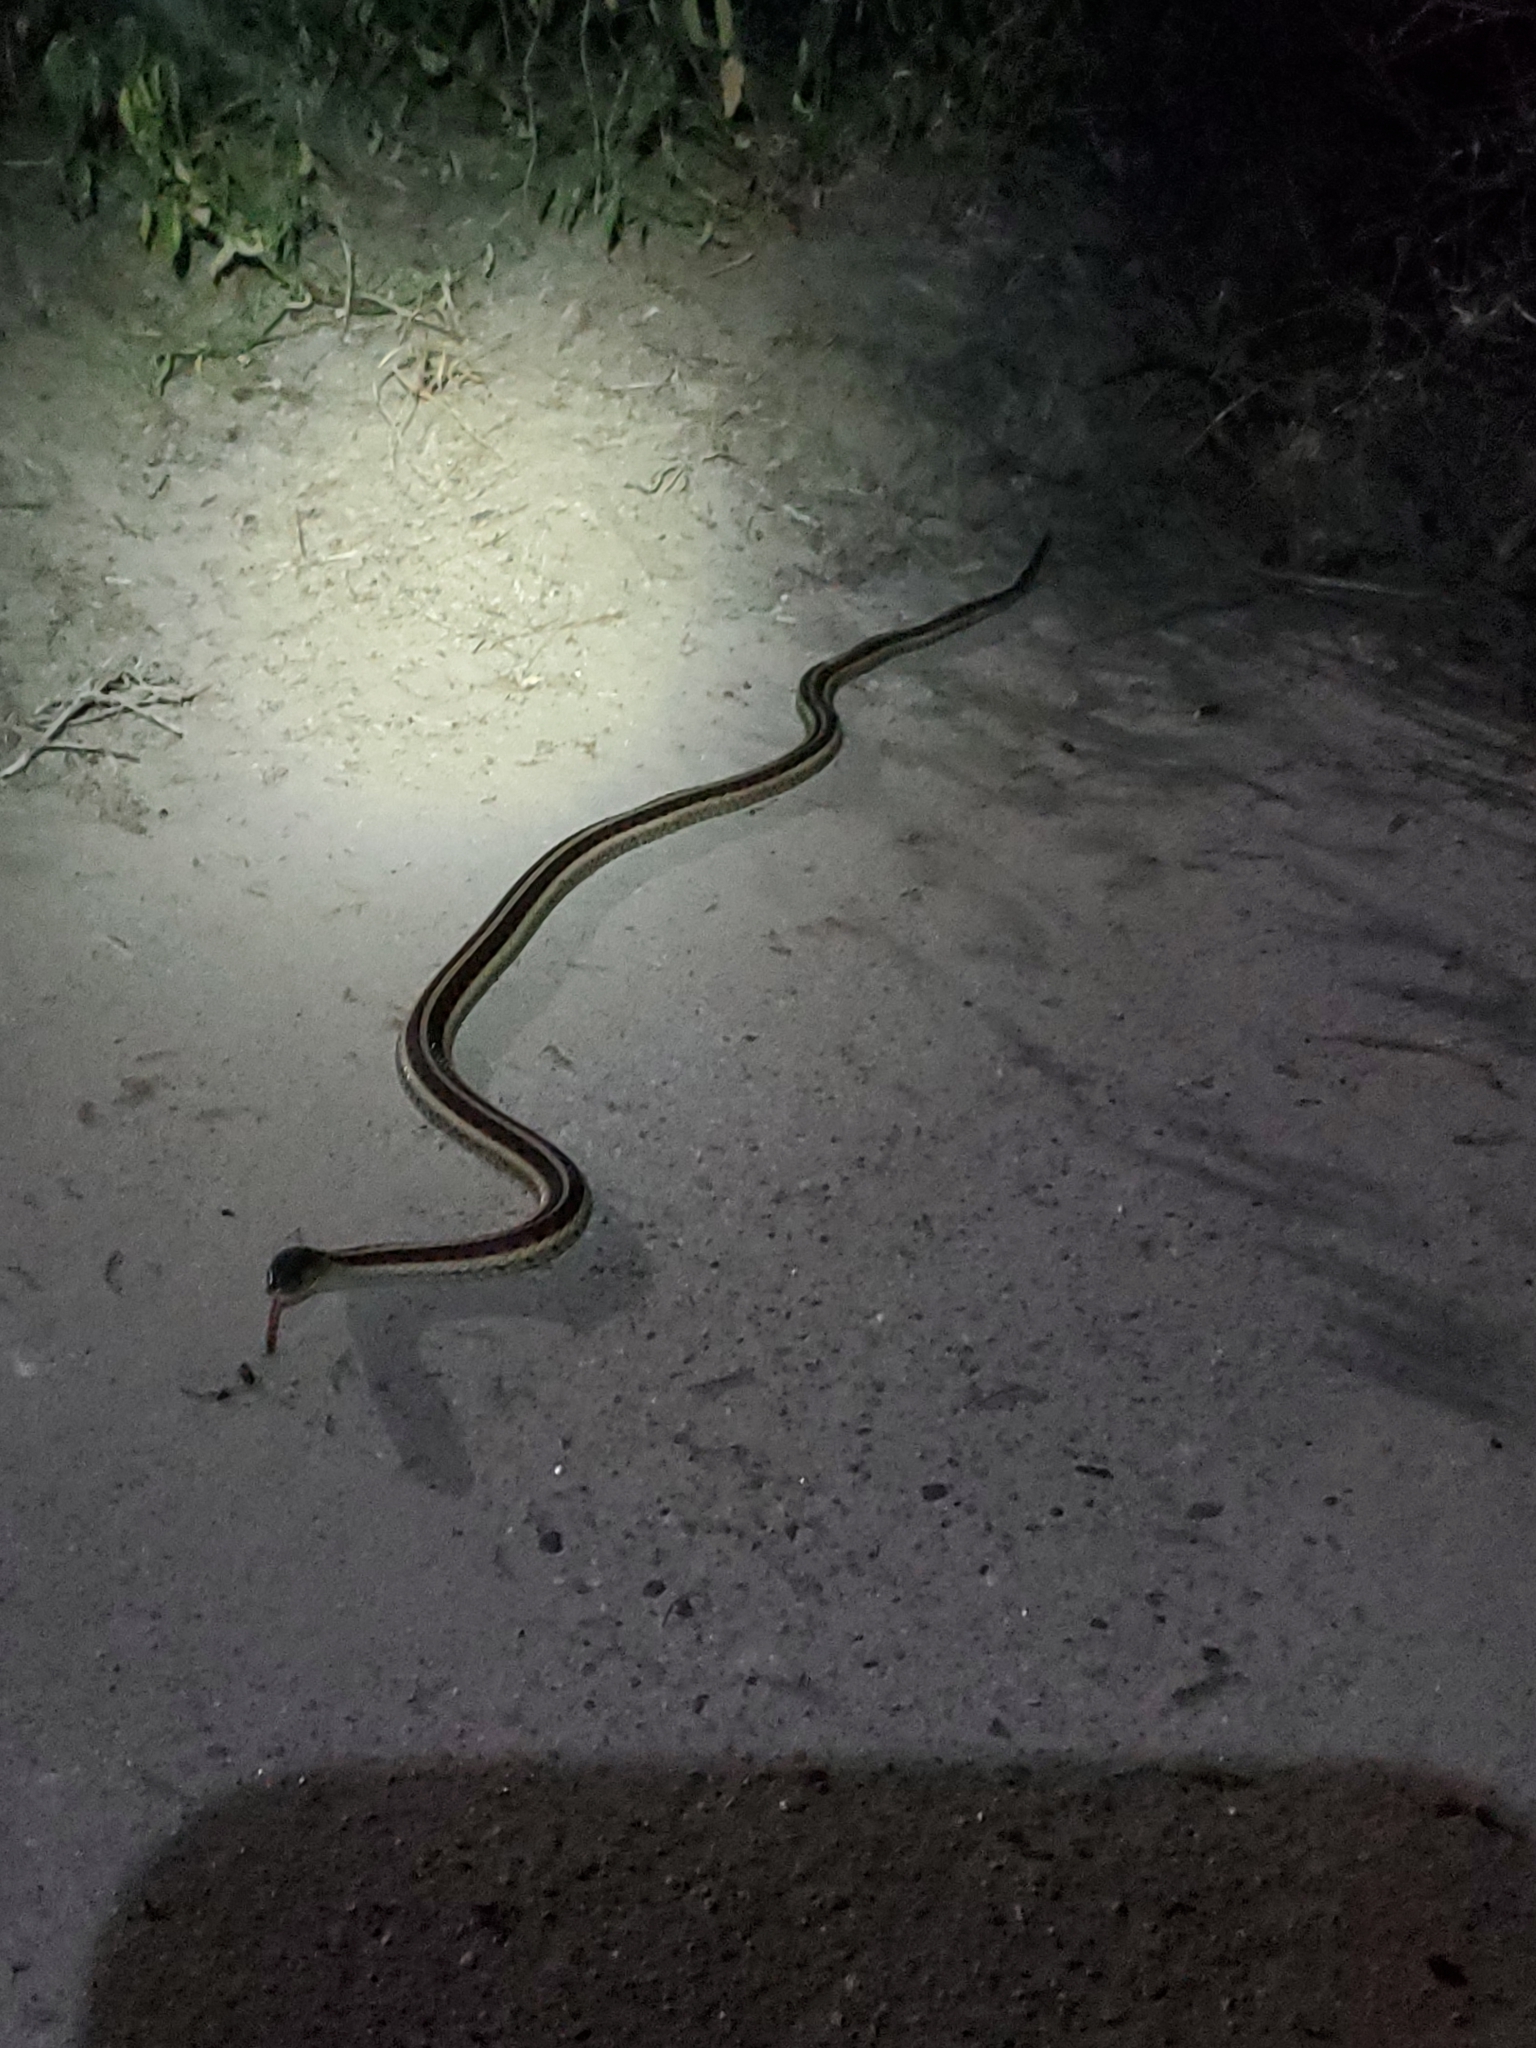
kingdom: Animalia
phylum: Chordata
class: Squamata
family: Colubridae
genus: Thamnophis
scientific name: Thamnophis sirtalis
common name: Common garter snake
